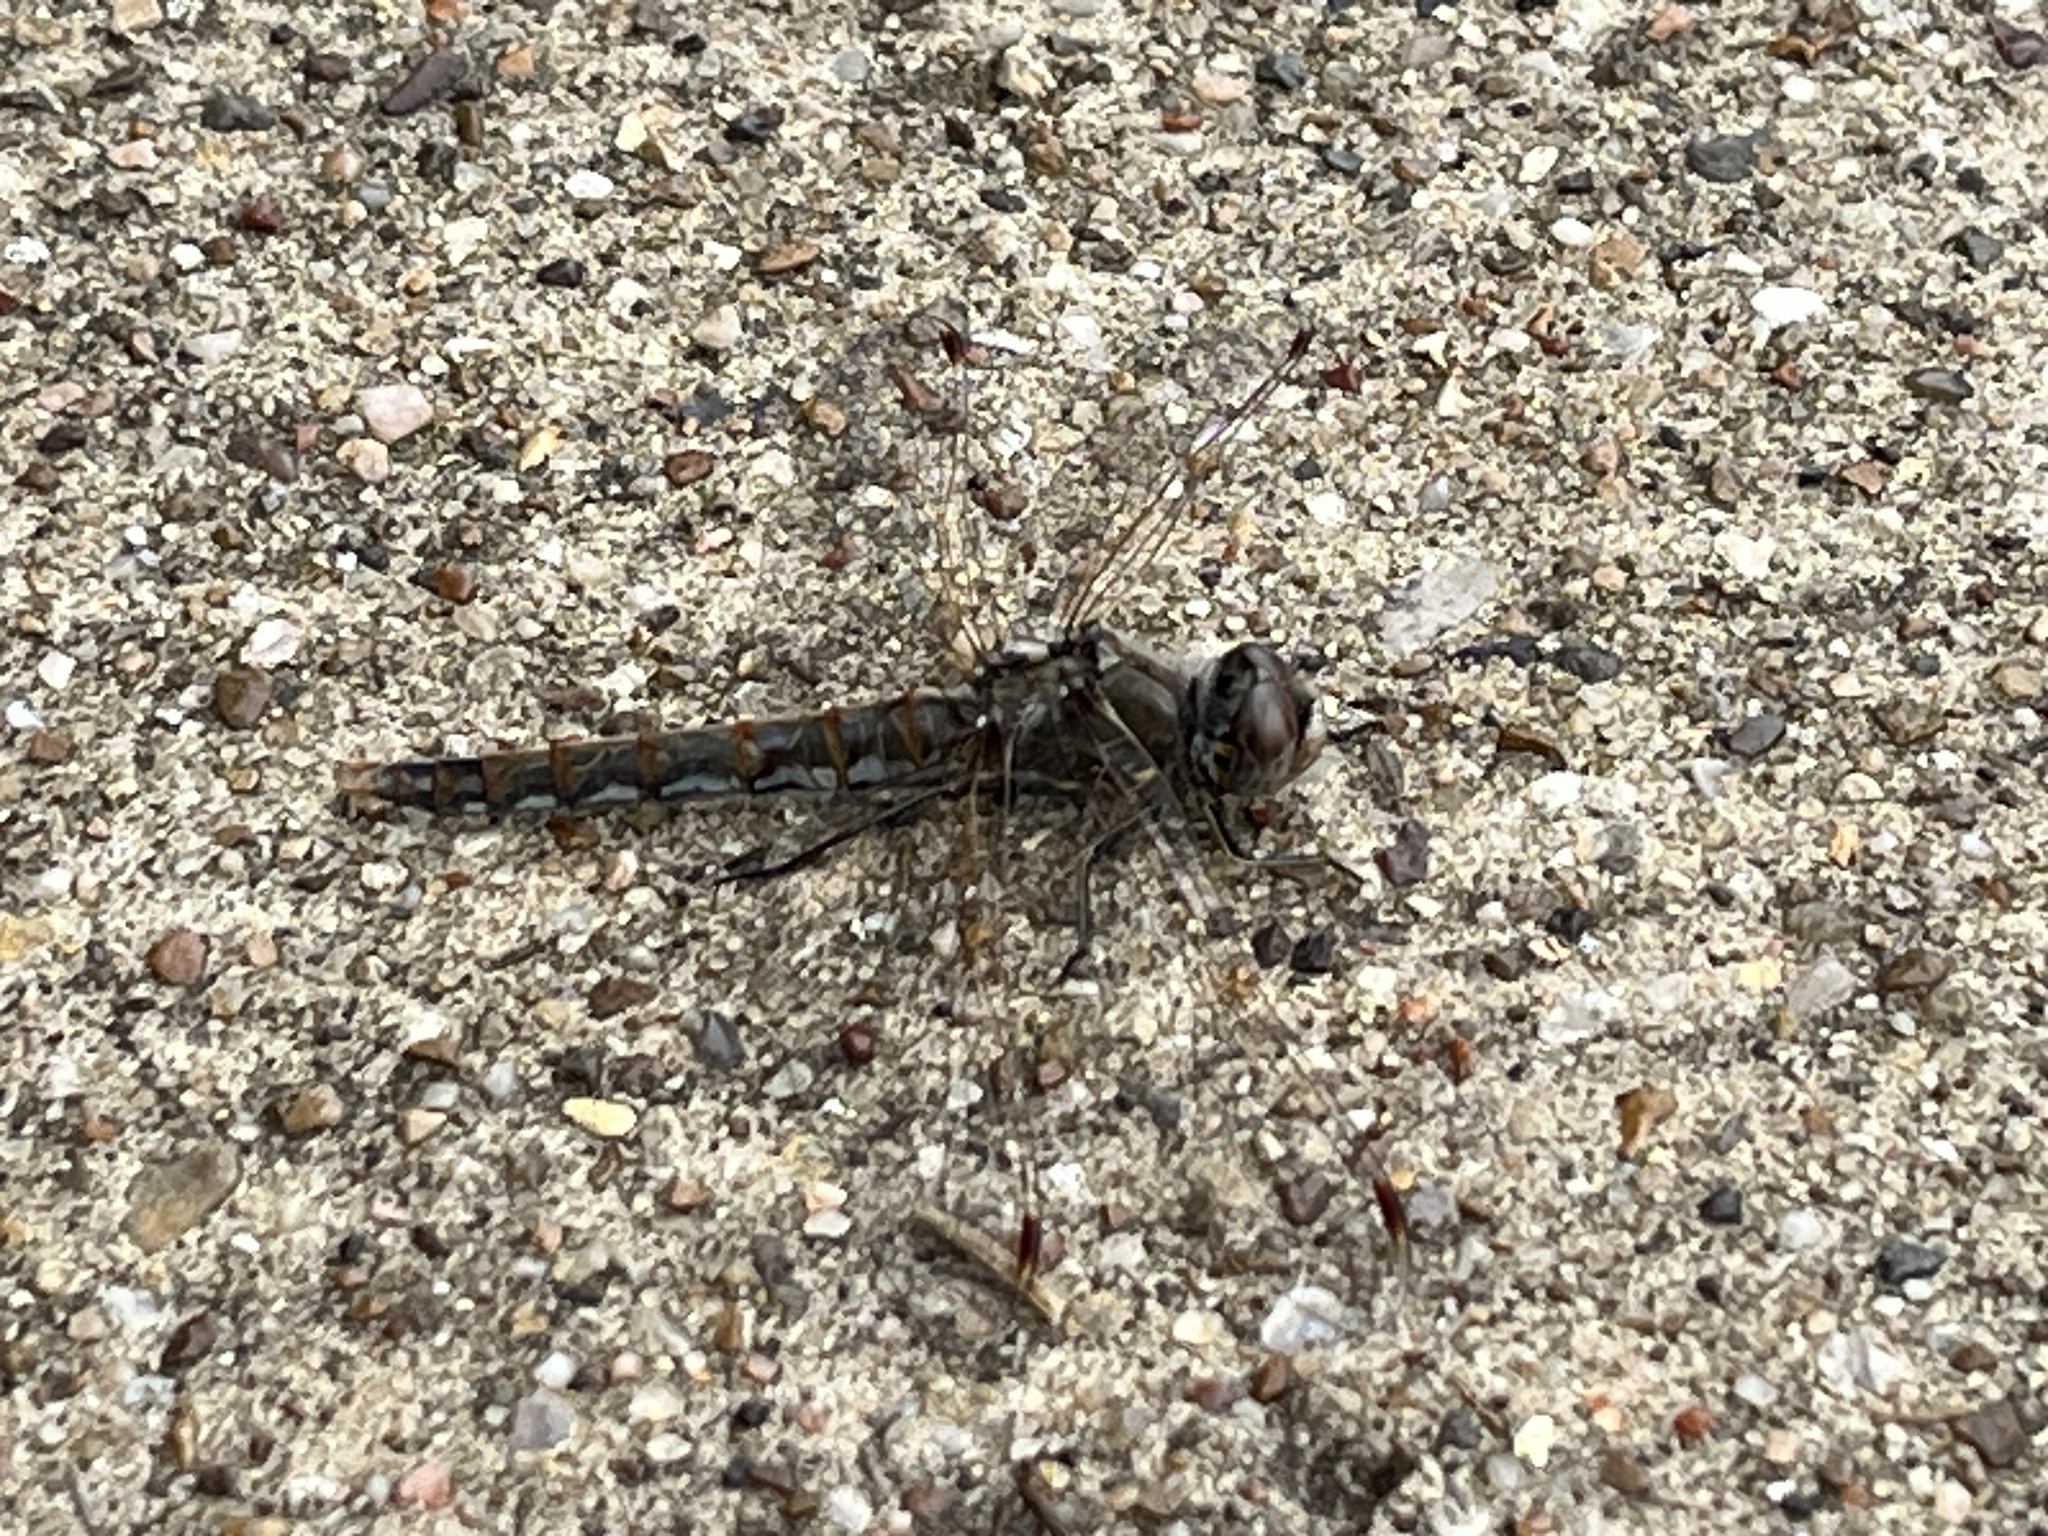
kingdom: Animalia
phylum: Arthropoda
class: Insecta
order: Odonata
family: Libellulidae
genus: Sympetrum
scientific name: Sympetrum corruptum
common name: Variegated meadowhawk
